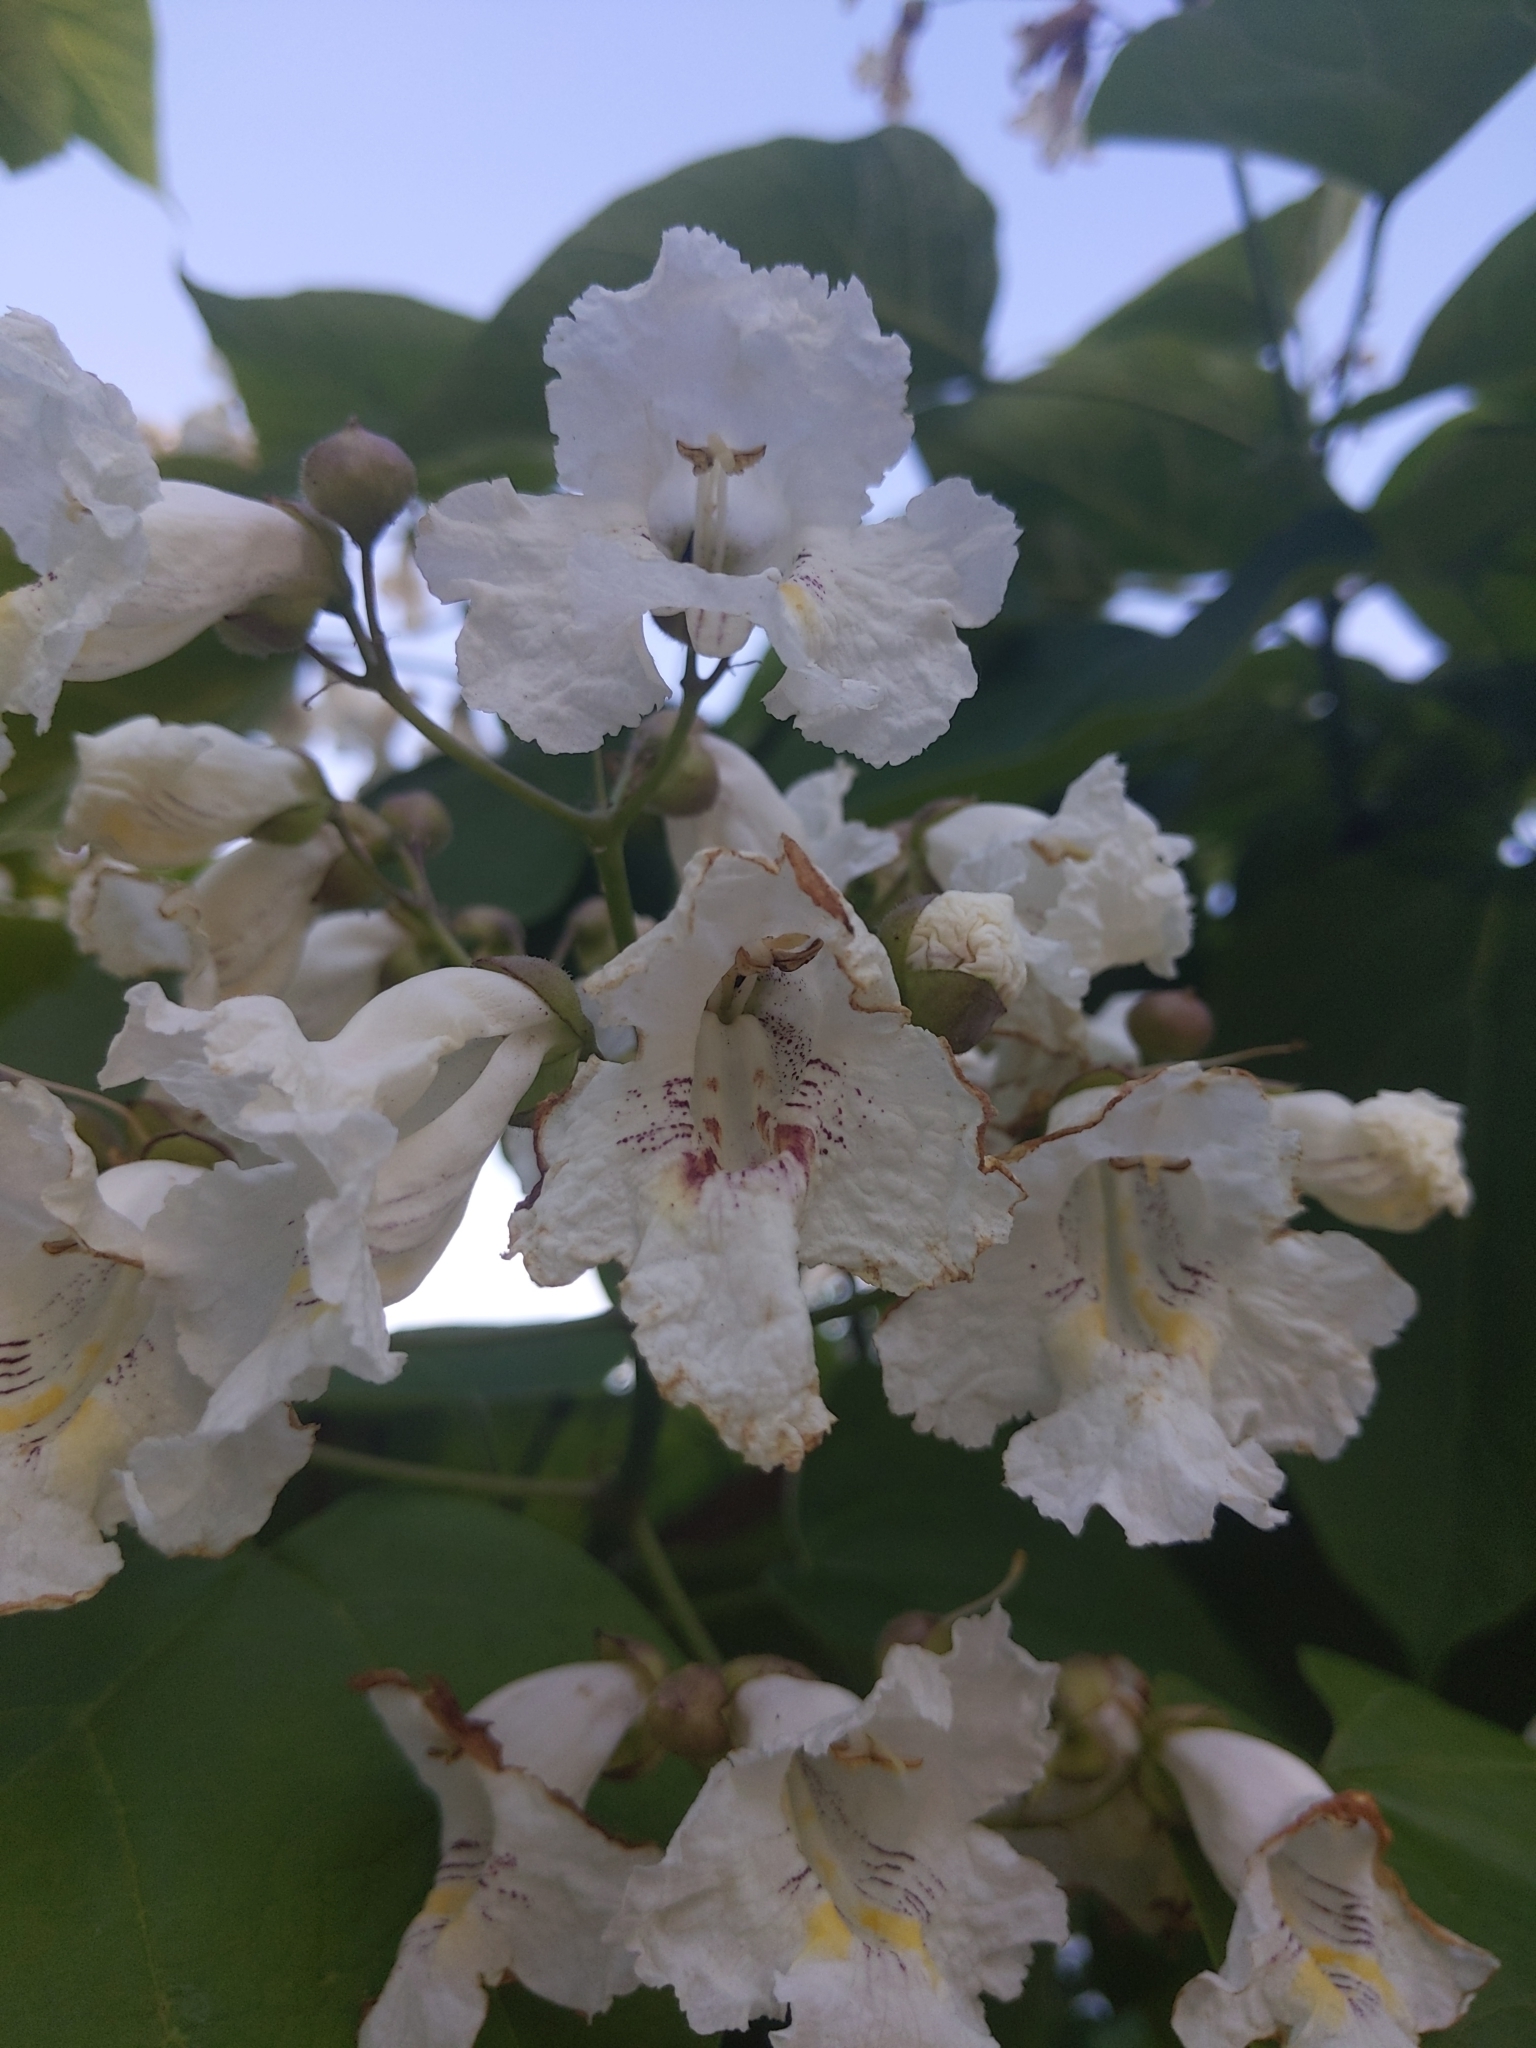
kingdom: Plantae
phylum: Tracheophyta
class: Magnoliopsida
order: Lamiales
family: Bignoniaceae
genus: Catalpa
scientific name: Catalpa speciosa
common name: Northern catalpa
